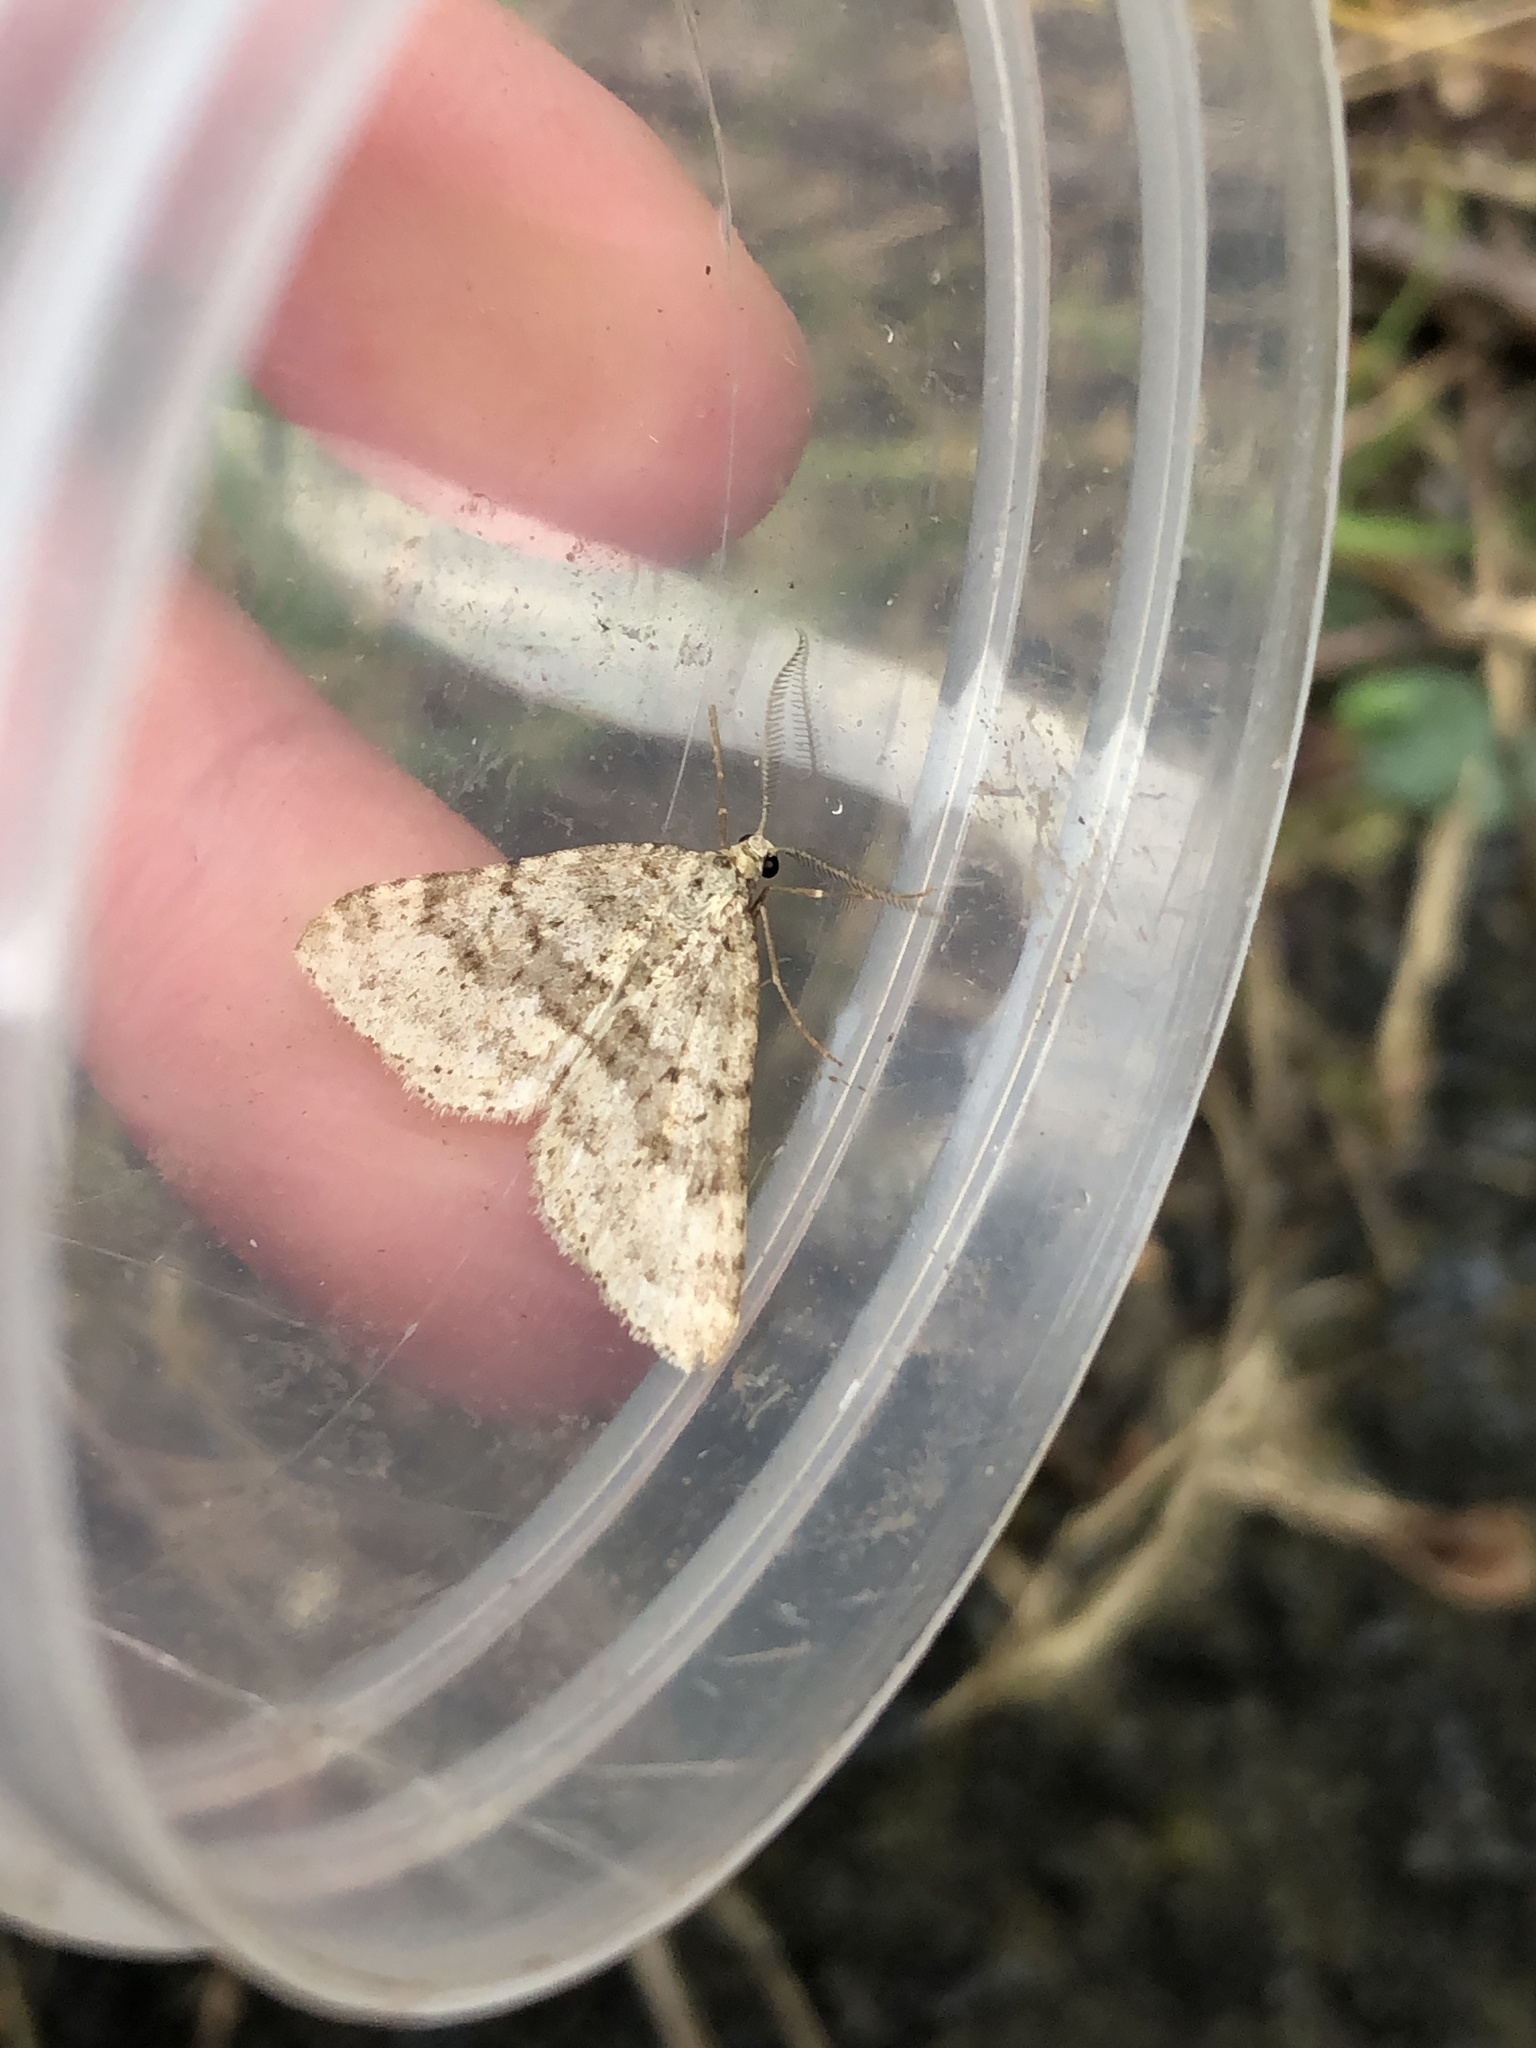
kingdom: Animalia
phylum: Arthropoda
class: Insecta
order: Lepidoptera
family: Geometridae
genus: Colostygia
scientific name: Colostygia multistrigaria
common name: Mottled grey
